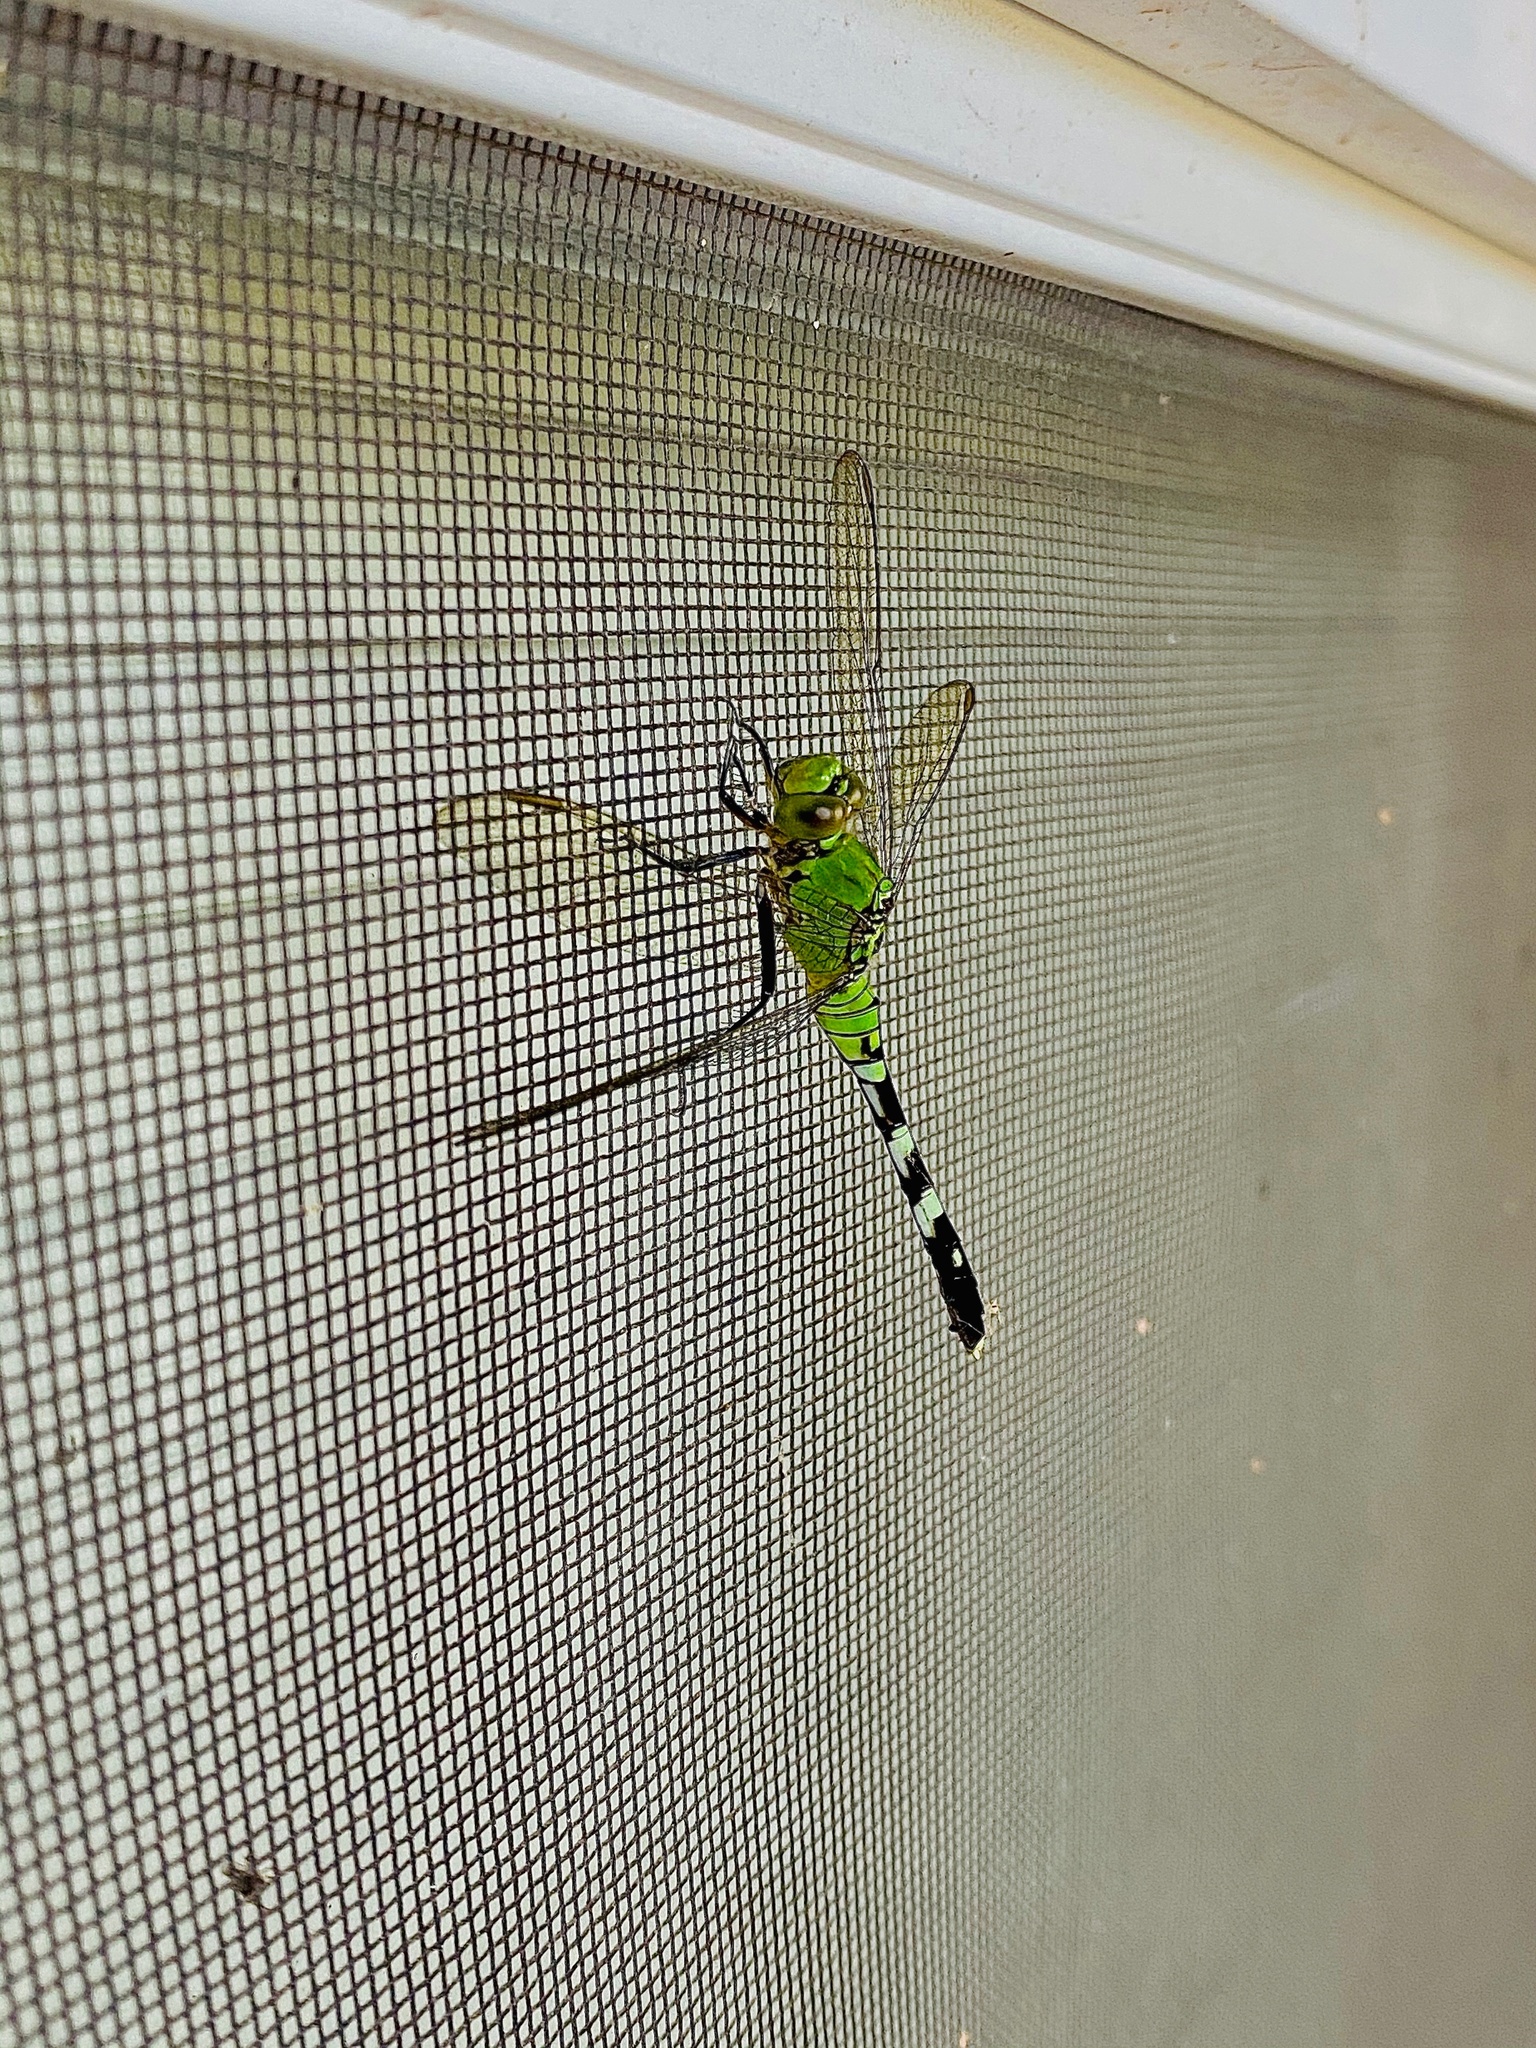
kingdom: Animalia
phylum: Arthropoda
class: Insecta
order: Odonata
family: Libellulidae
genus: Erythemis
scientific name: Erythemis simplicicollis
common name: Eastern pondhawk
